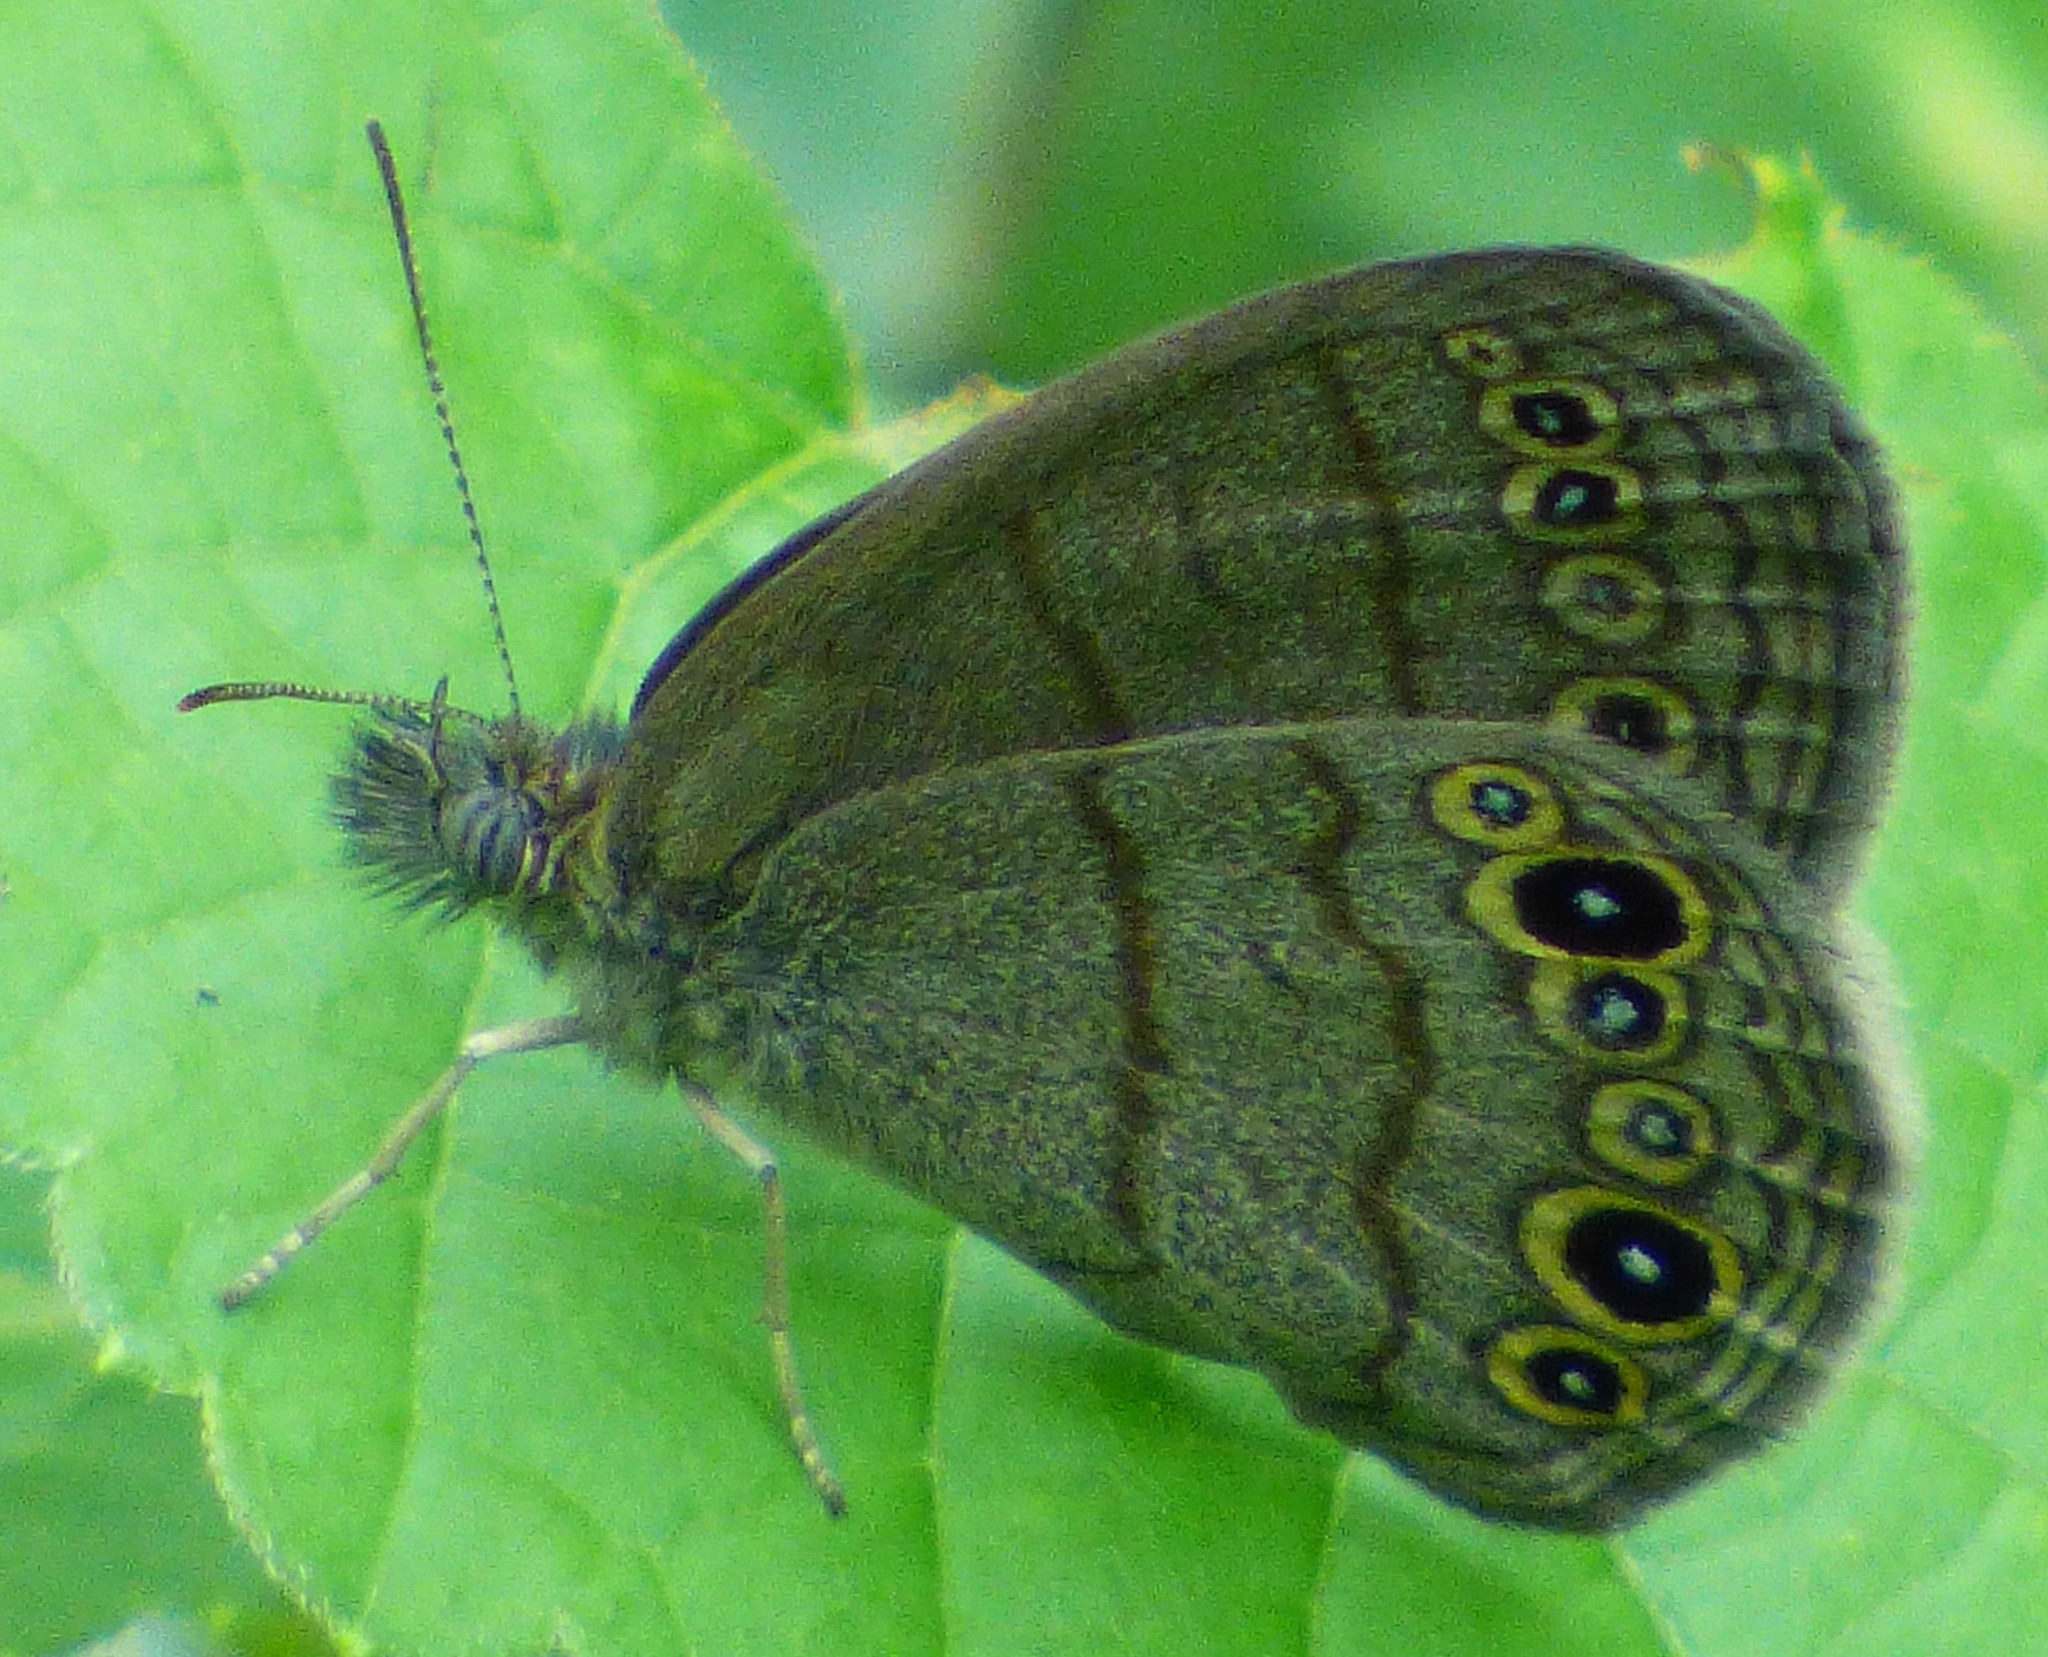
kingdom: Animalia
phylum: Arthropoda
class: Insecta
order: Lepidoptera
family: Nymphalidae
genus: Hermeuptychia
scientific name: Hermeuptychia hermes
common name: Hermes satyr
